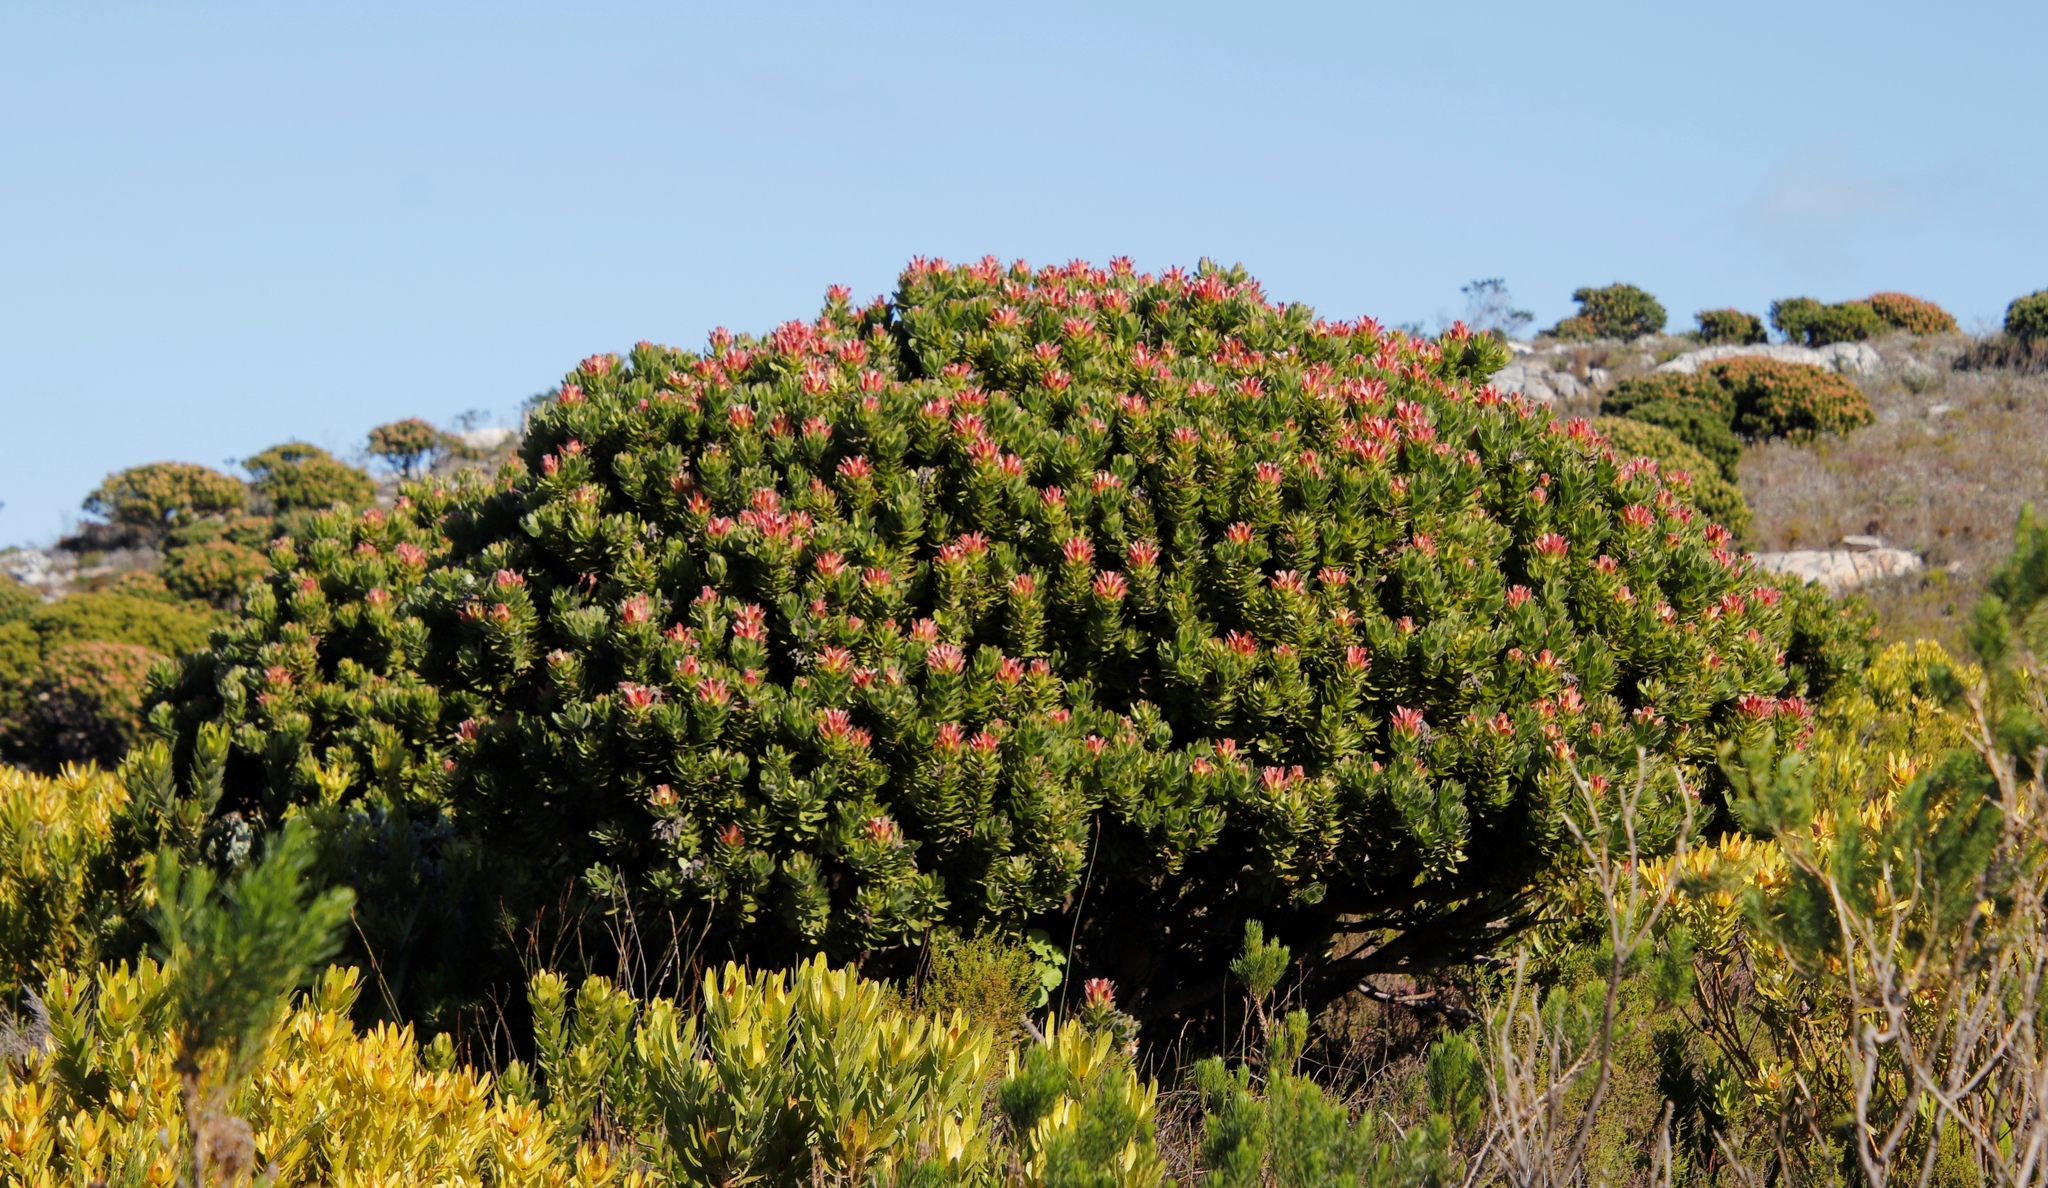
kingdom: Plantae
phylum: Tracheophyta
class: Magnoliopsida
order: Proteales
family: Proteaceae
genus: Mimetes
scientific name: Mimetes fimbriifolius
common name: Fringed bottlebrush
